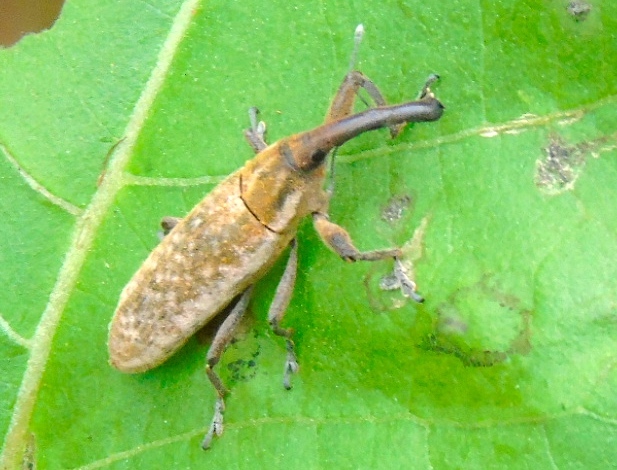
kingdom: Animalia
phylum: Arthropoda
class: Insecta
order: Coleoptera
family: Curculionidae
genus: Lixus
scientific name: Lixus
